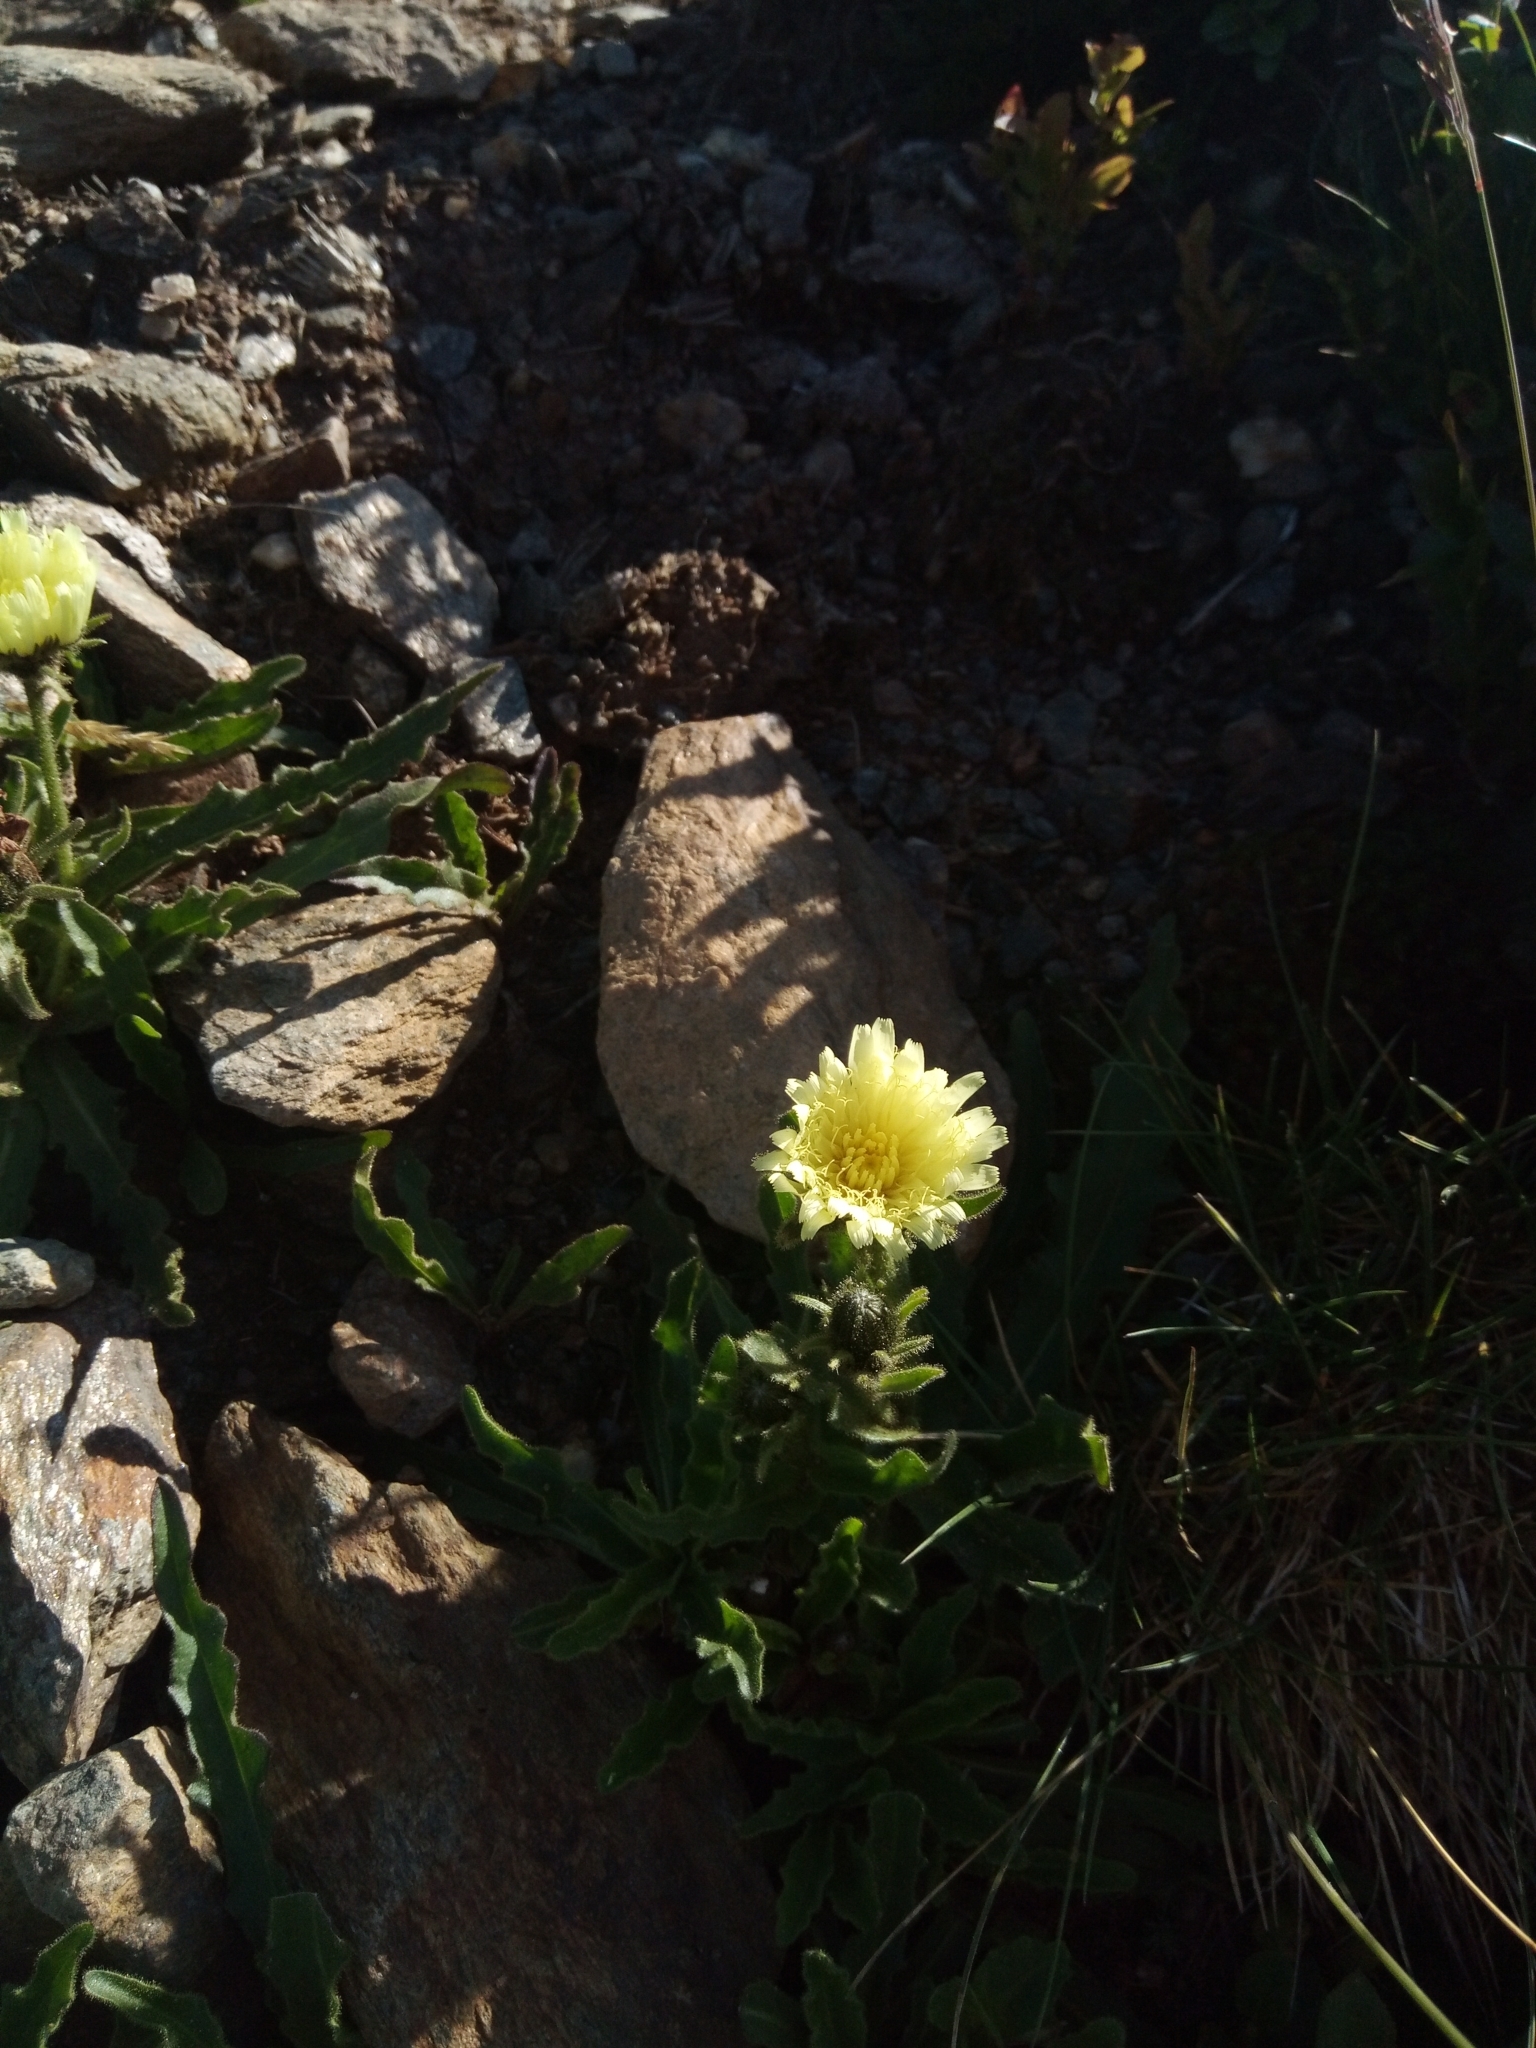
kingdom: Plantae
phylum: Tracheophyta
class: Magnoliopsida
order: Asterales
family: Asteraceae
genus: Schlagintweitia
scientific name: Schlagintweitia intybacea
